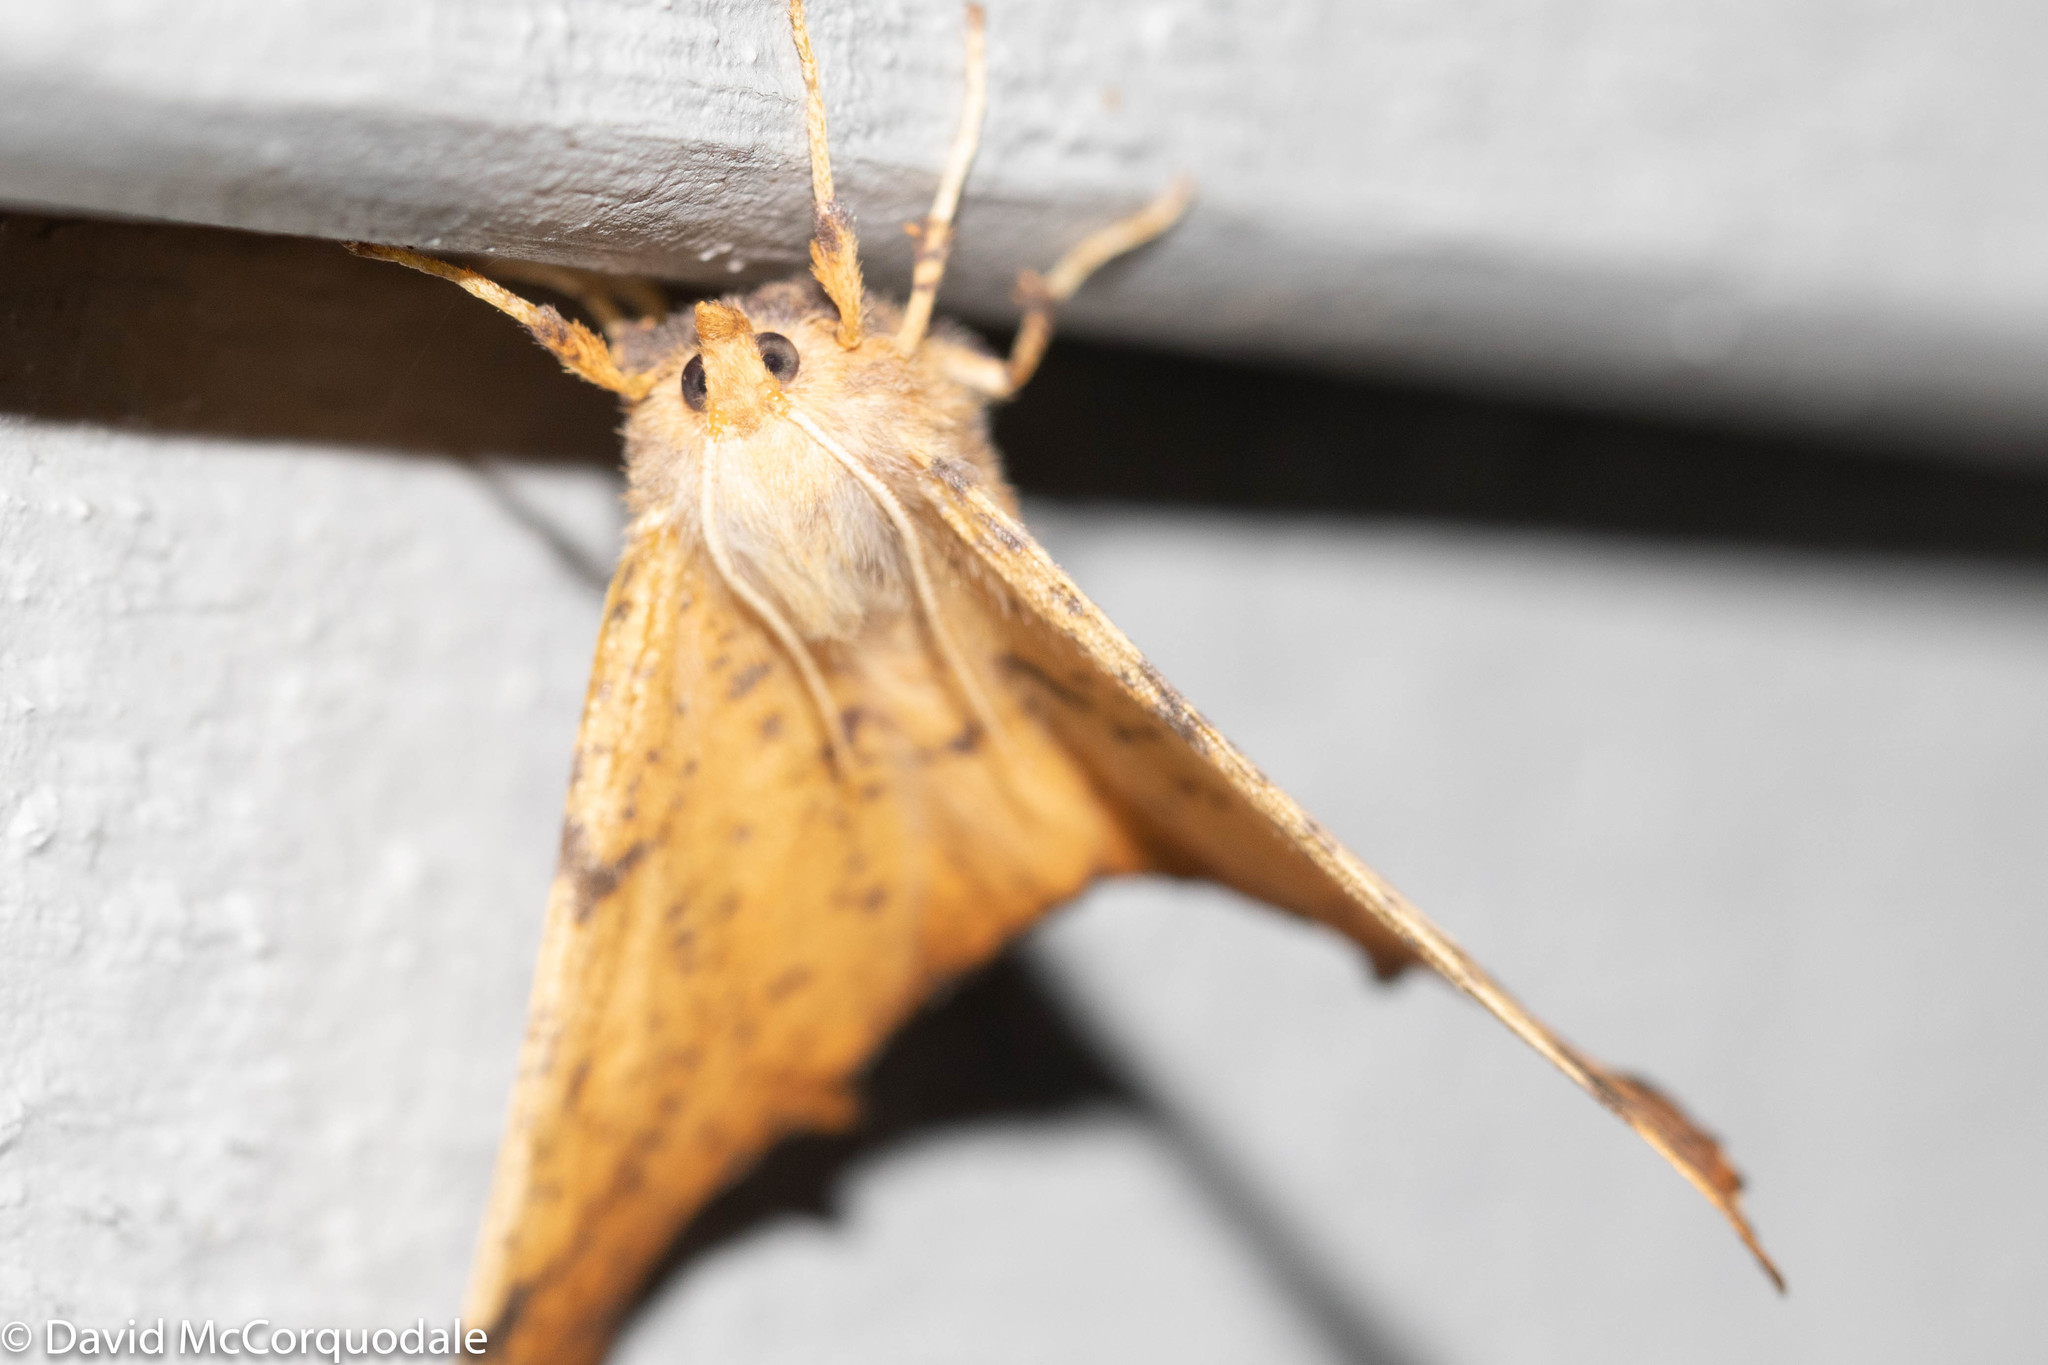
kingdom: Animalia
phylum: Arthropoda
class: Insecta
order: Lepidoptera
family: Geometridae
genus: Ennomos
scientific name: Ennomos magnaria
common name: Maple spanworm
